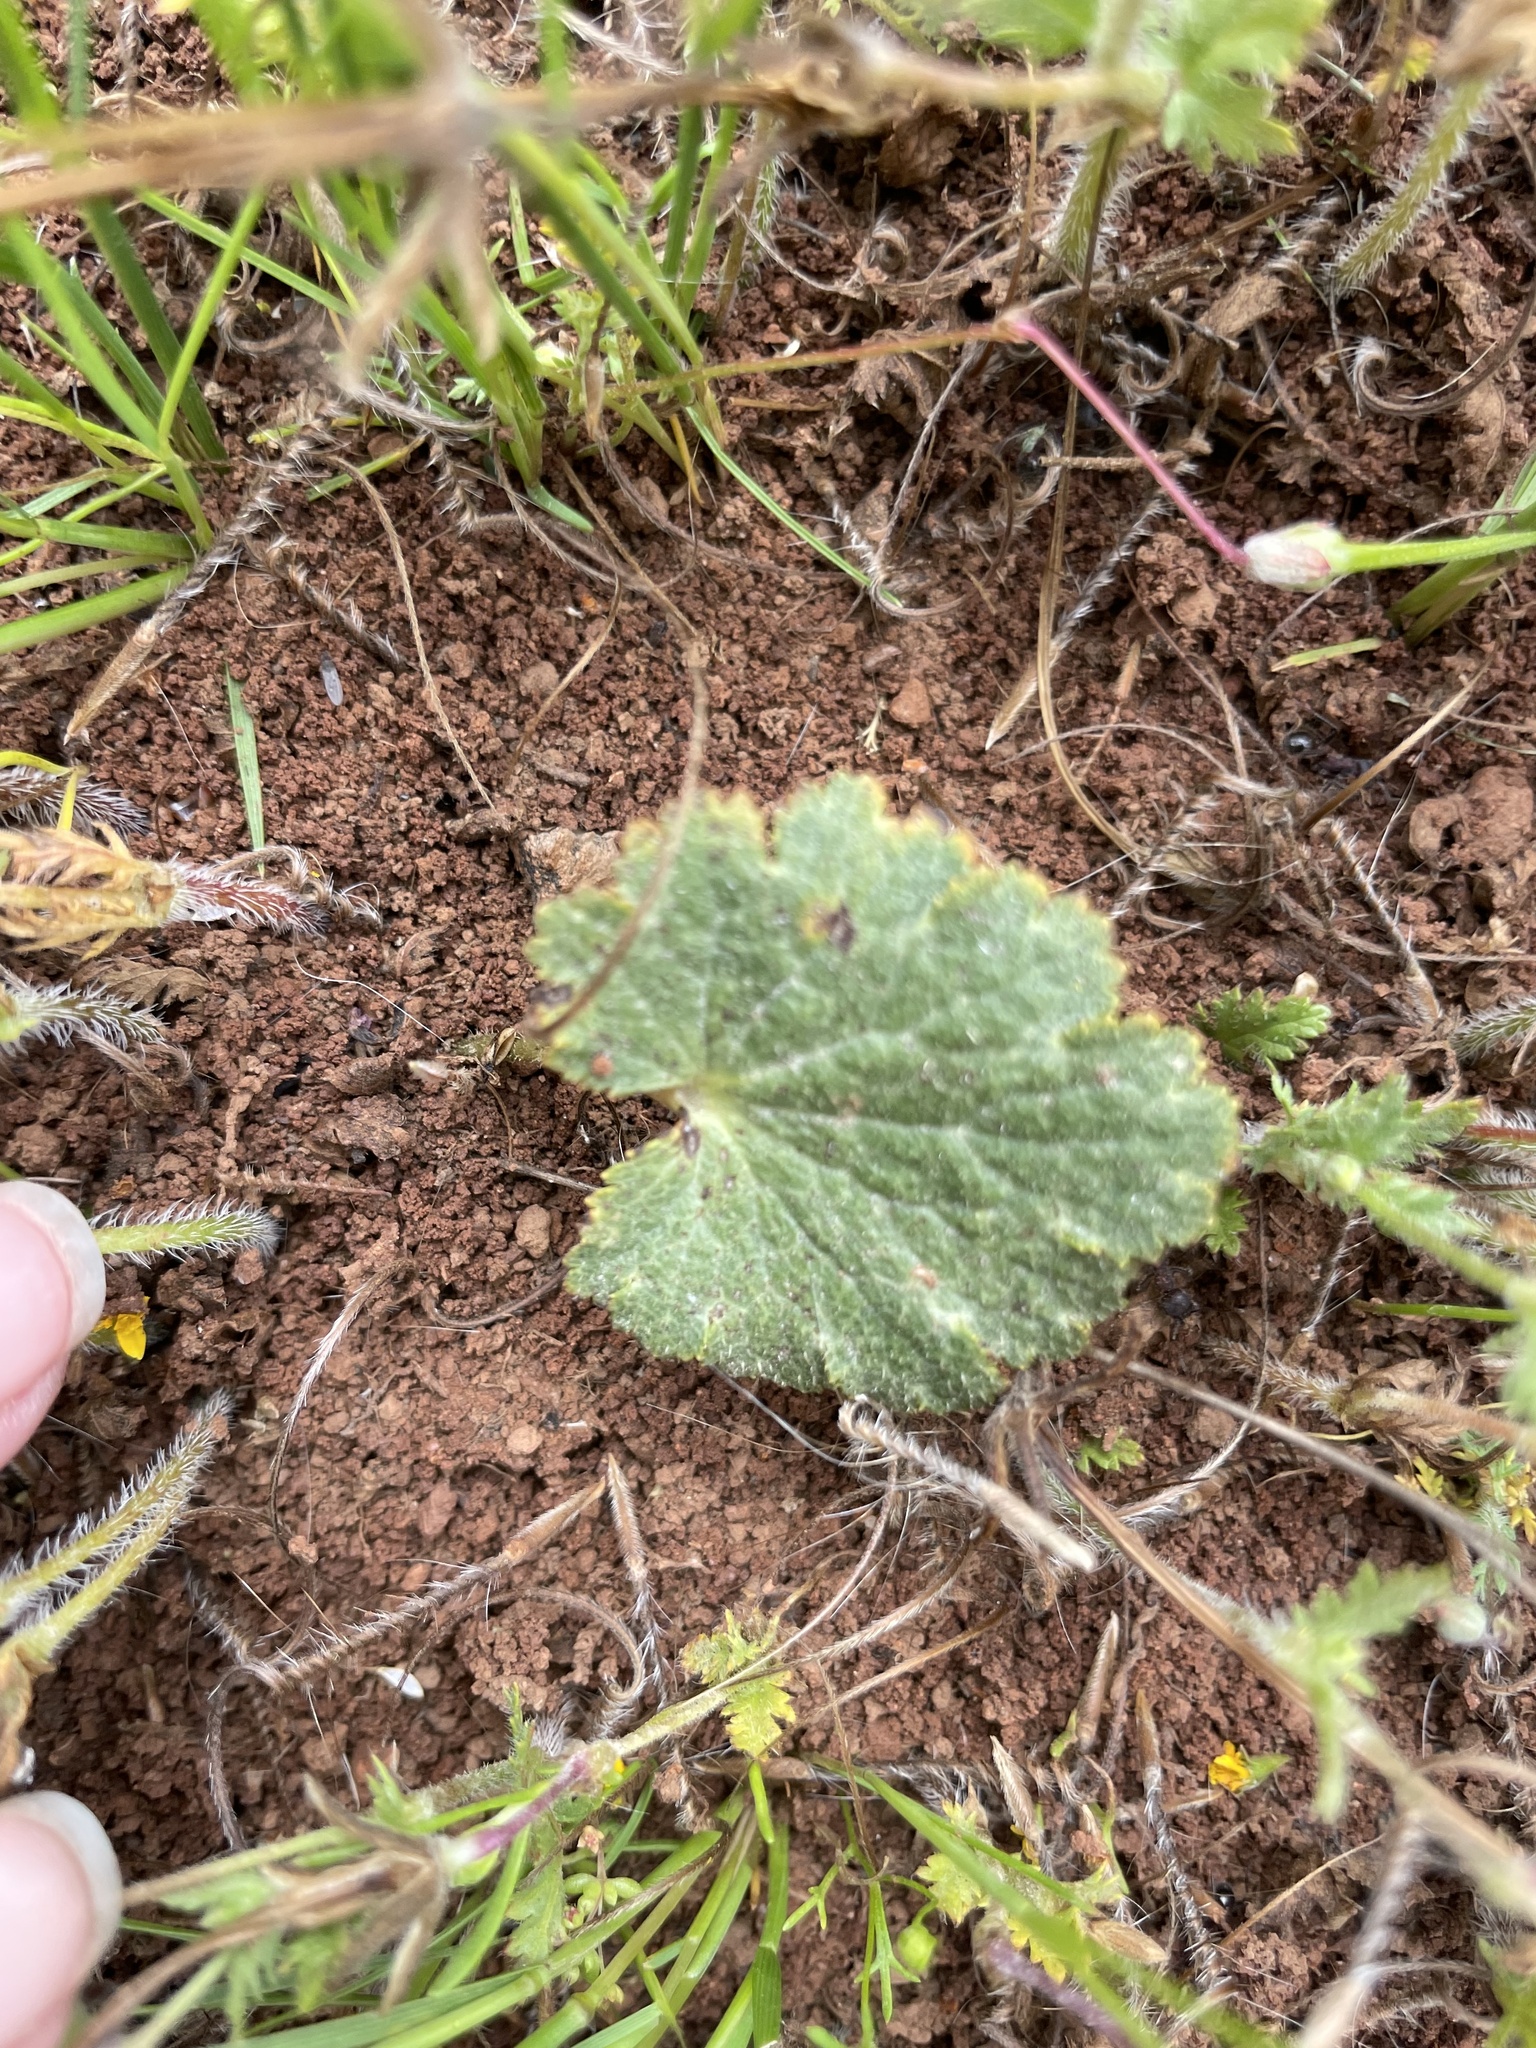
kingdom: Plantae
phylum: Tracheophyta
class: Magnoliopsida
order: Saxifragales
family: Saxifragaceae
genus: Jepsonia
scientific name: Jepsonia parryi
